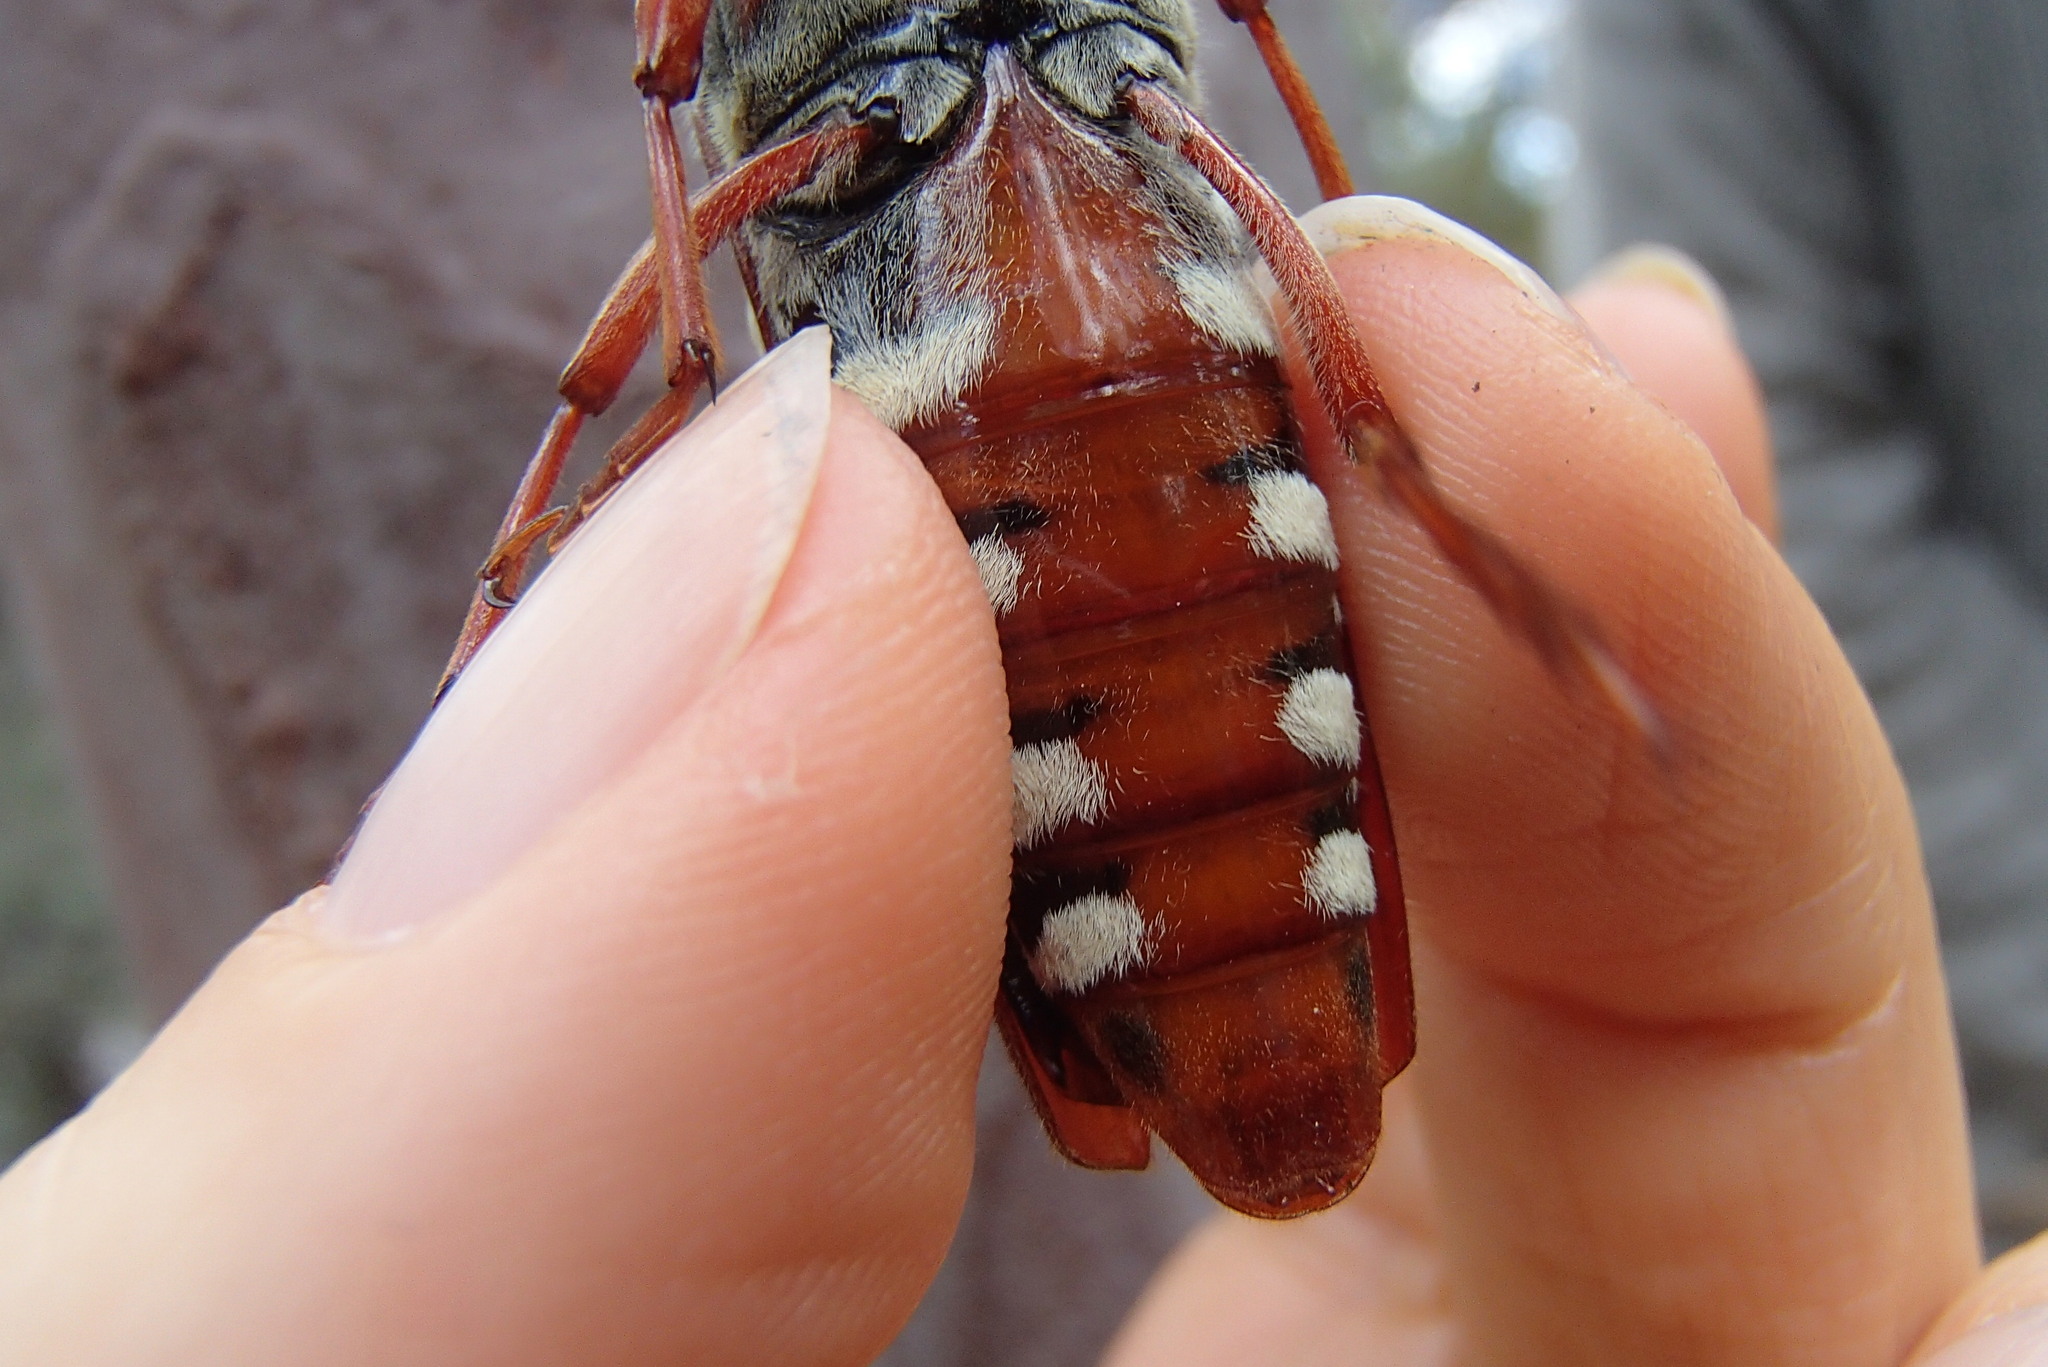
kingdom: Animalia
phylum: Arthropoda
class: Insecta
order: Coleoptera
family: Cerambycidae
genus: Tragocerus
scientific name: Tragocerus lepidopterus
